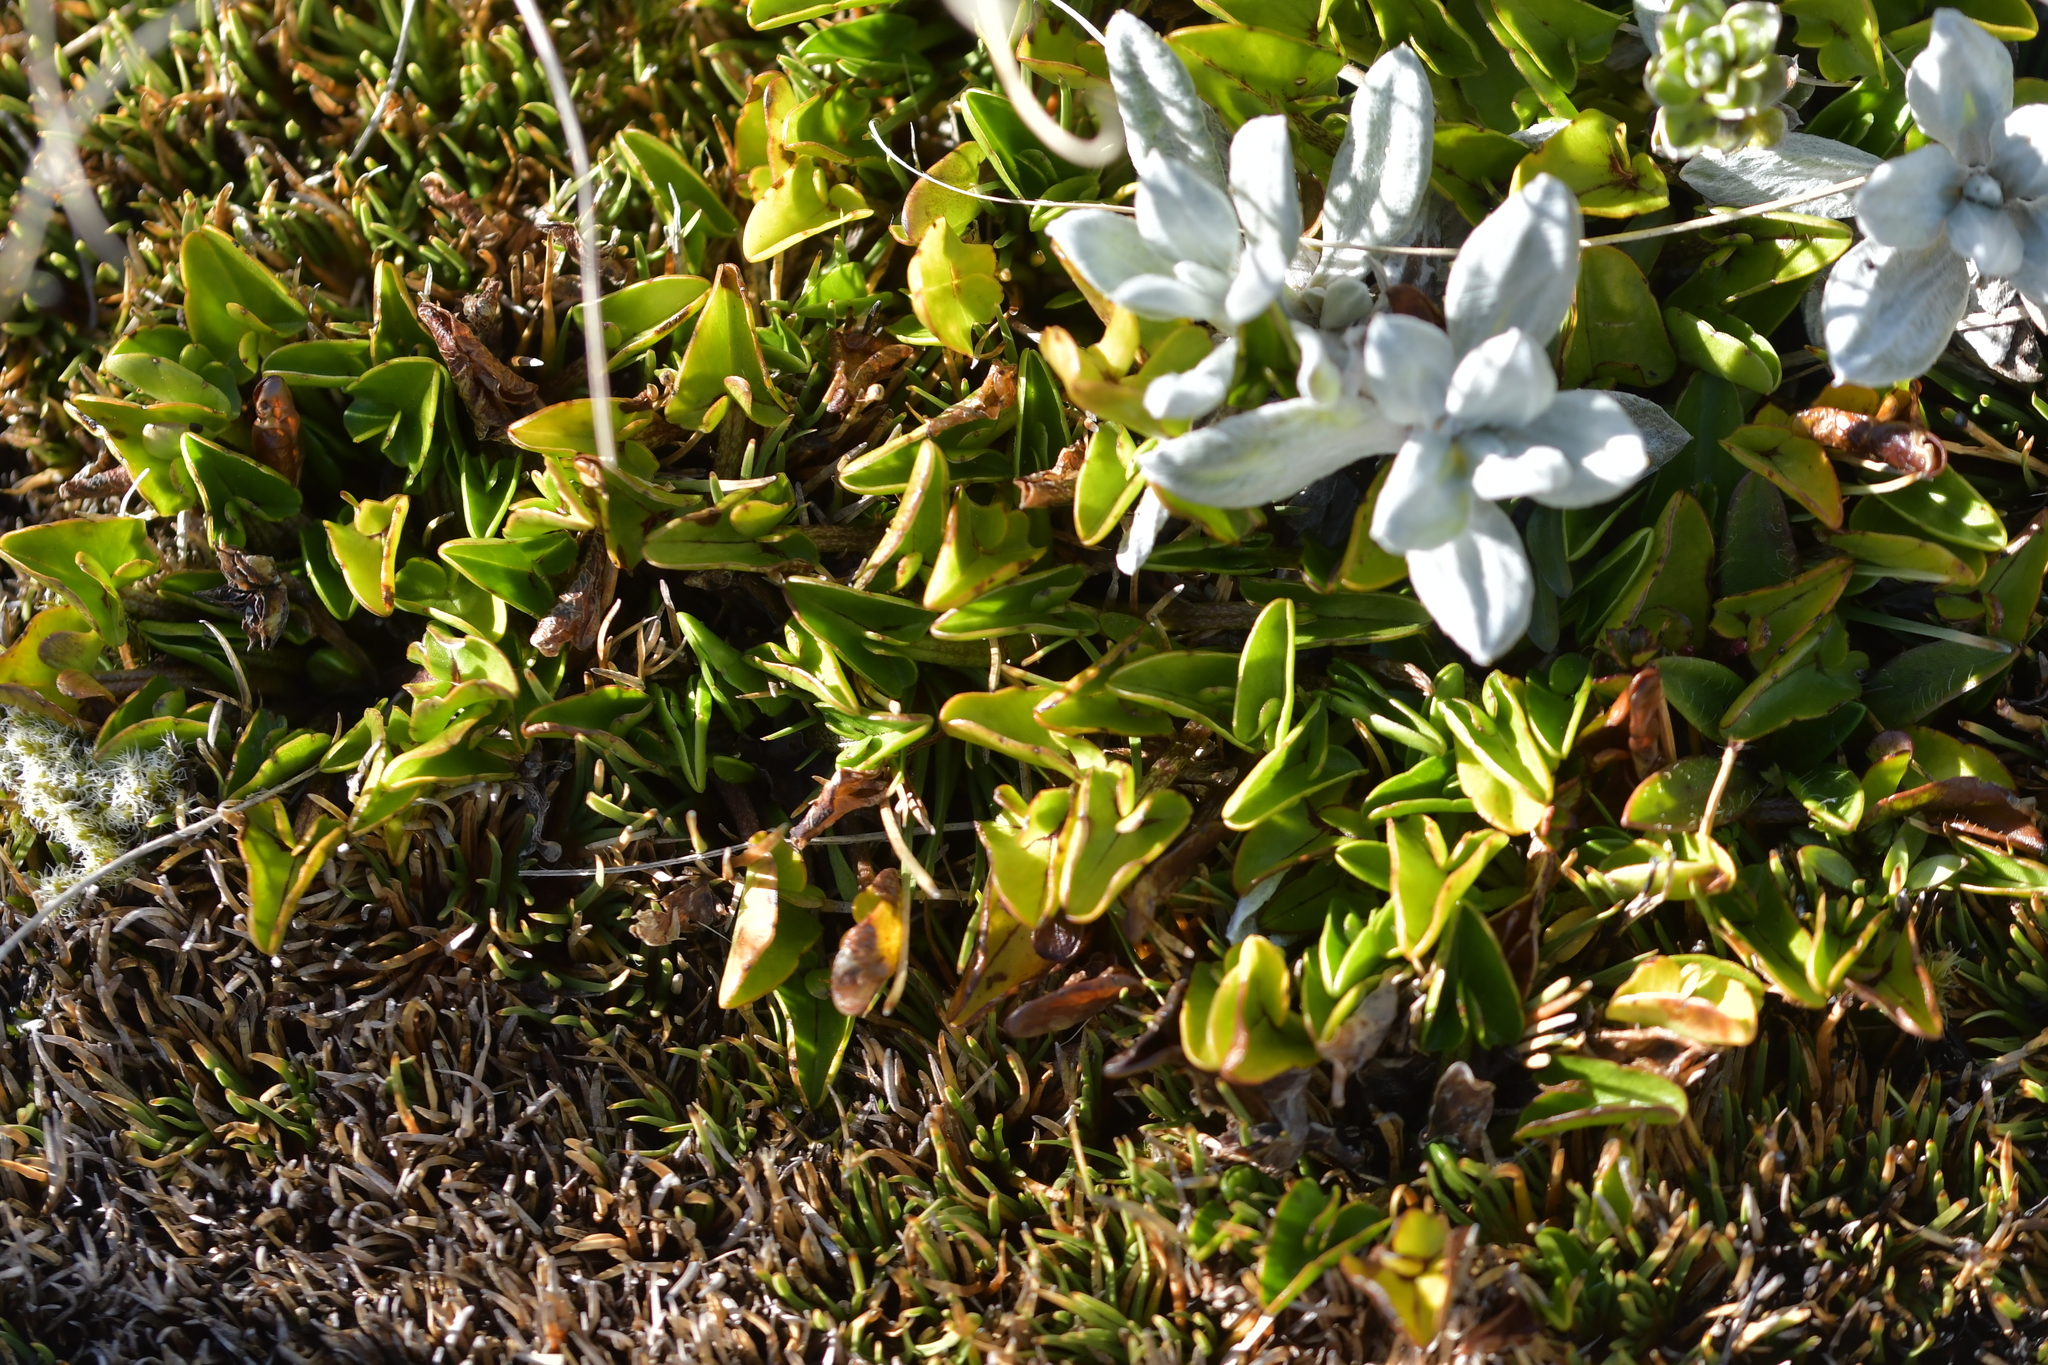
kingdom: Plantae
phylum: Tracheophyta
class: Magnoliopsida
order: Ranunculales
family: Ranunculaceae
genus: Caltha
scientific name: Caltha novae-zelandiae
